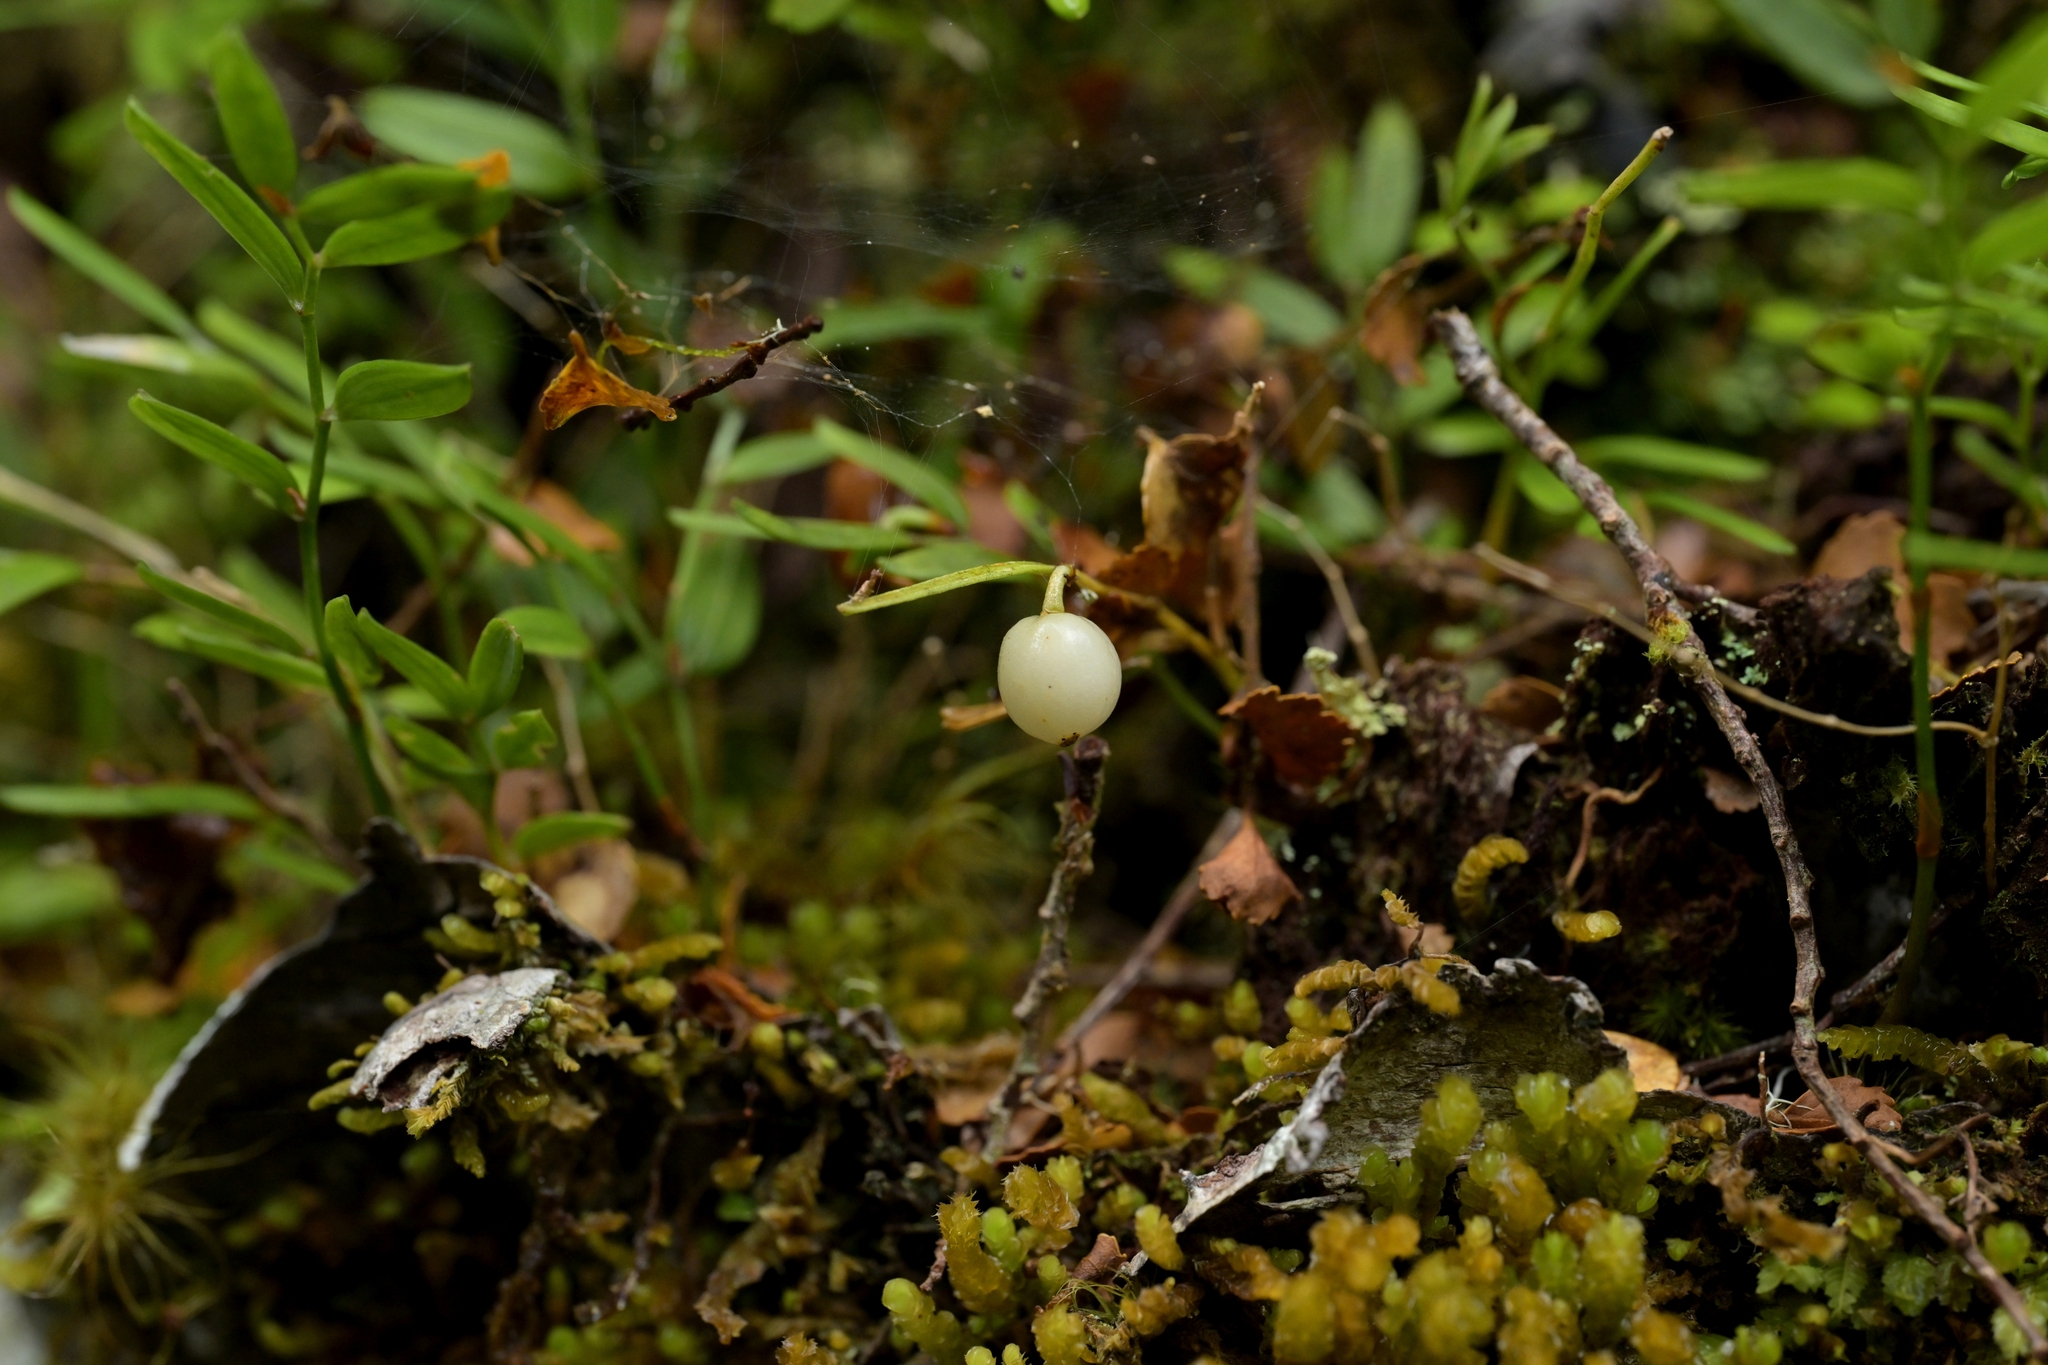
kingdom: Plantae
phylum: Tracheophyta
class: Liliopsida
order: Liliales
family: Alstroemeriaceae
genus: Luzuriaga
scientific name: Luzuriaga parviflora
